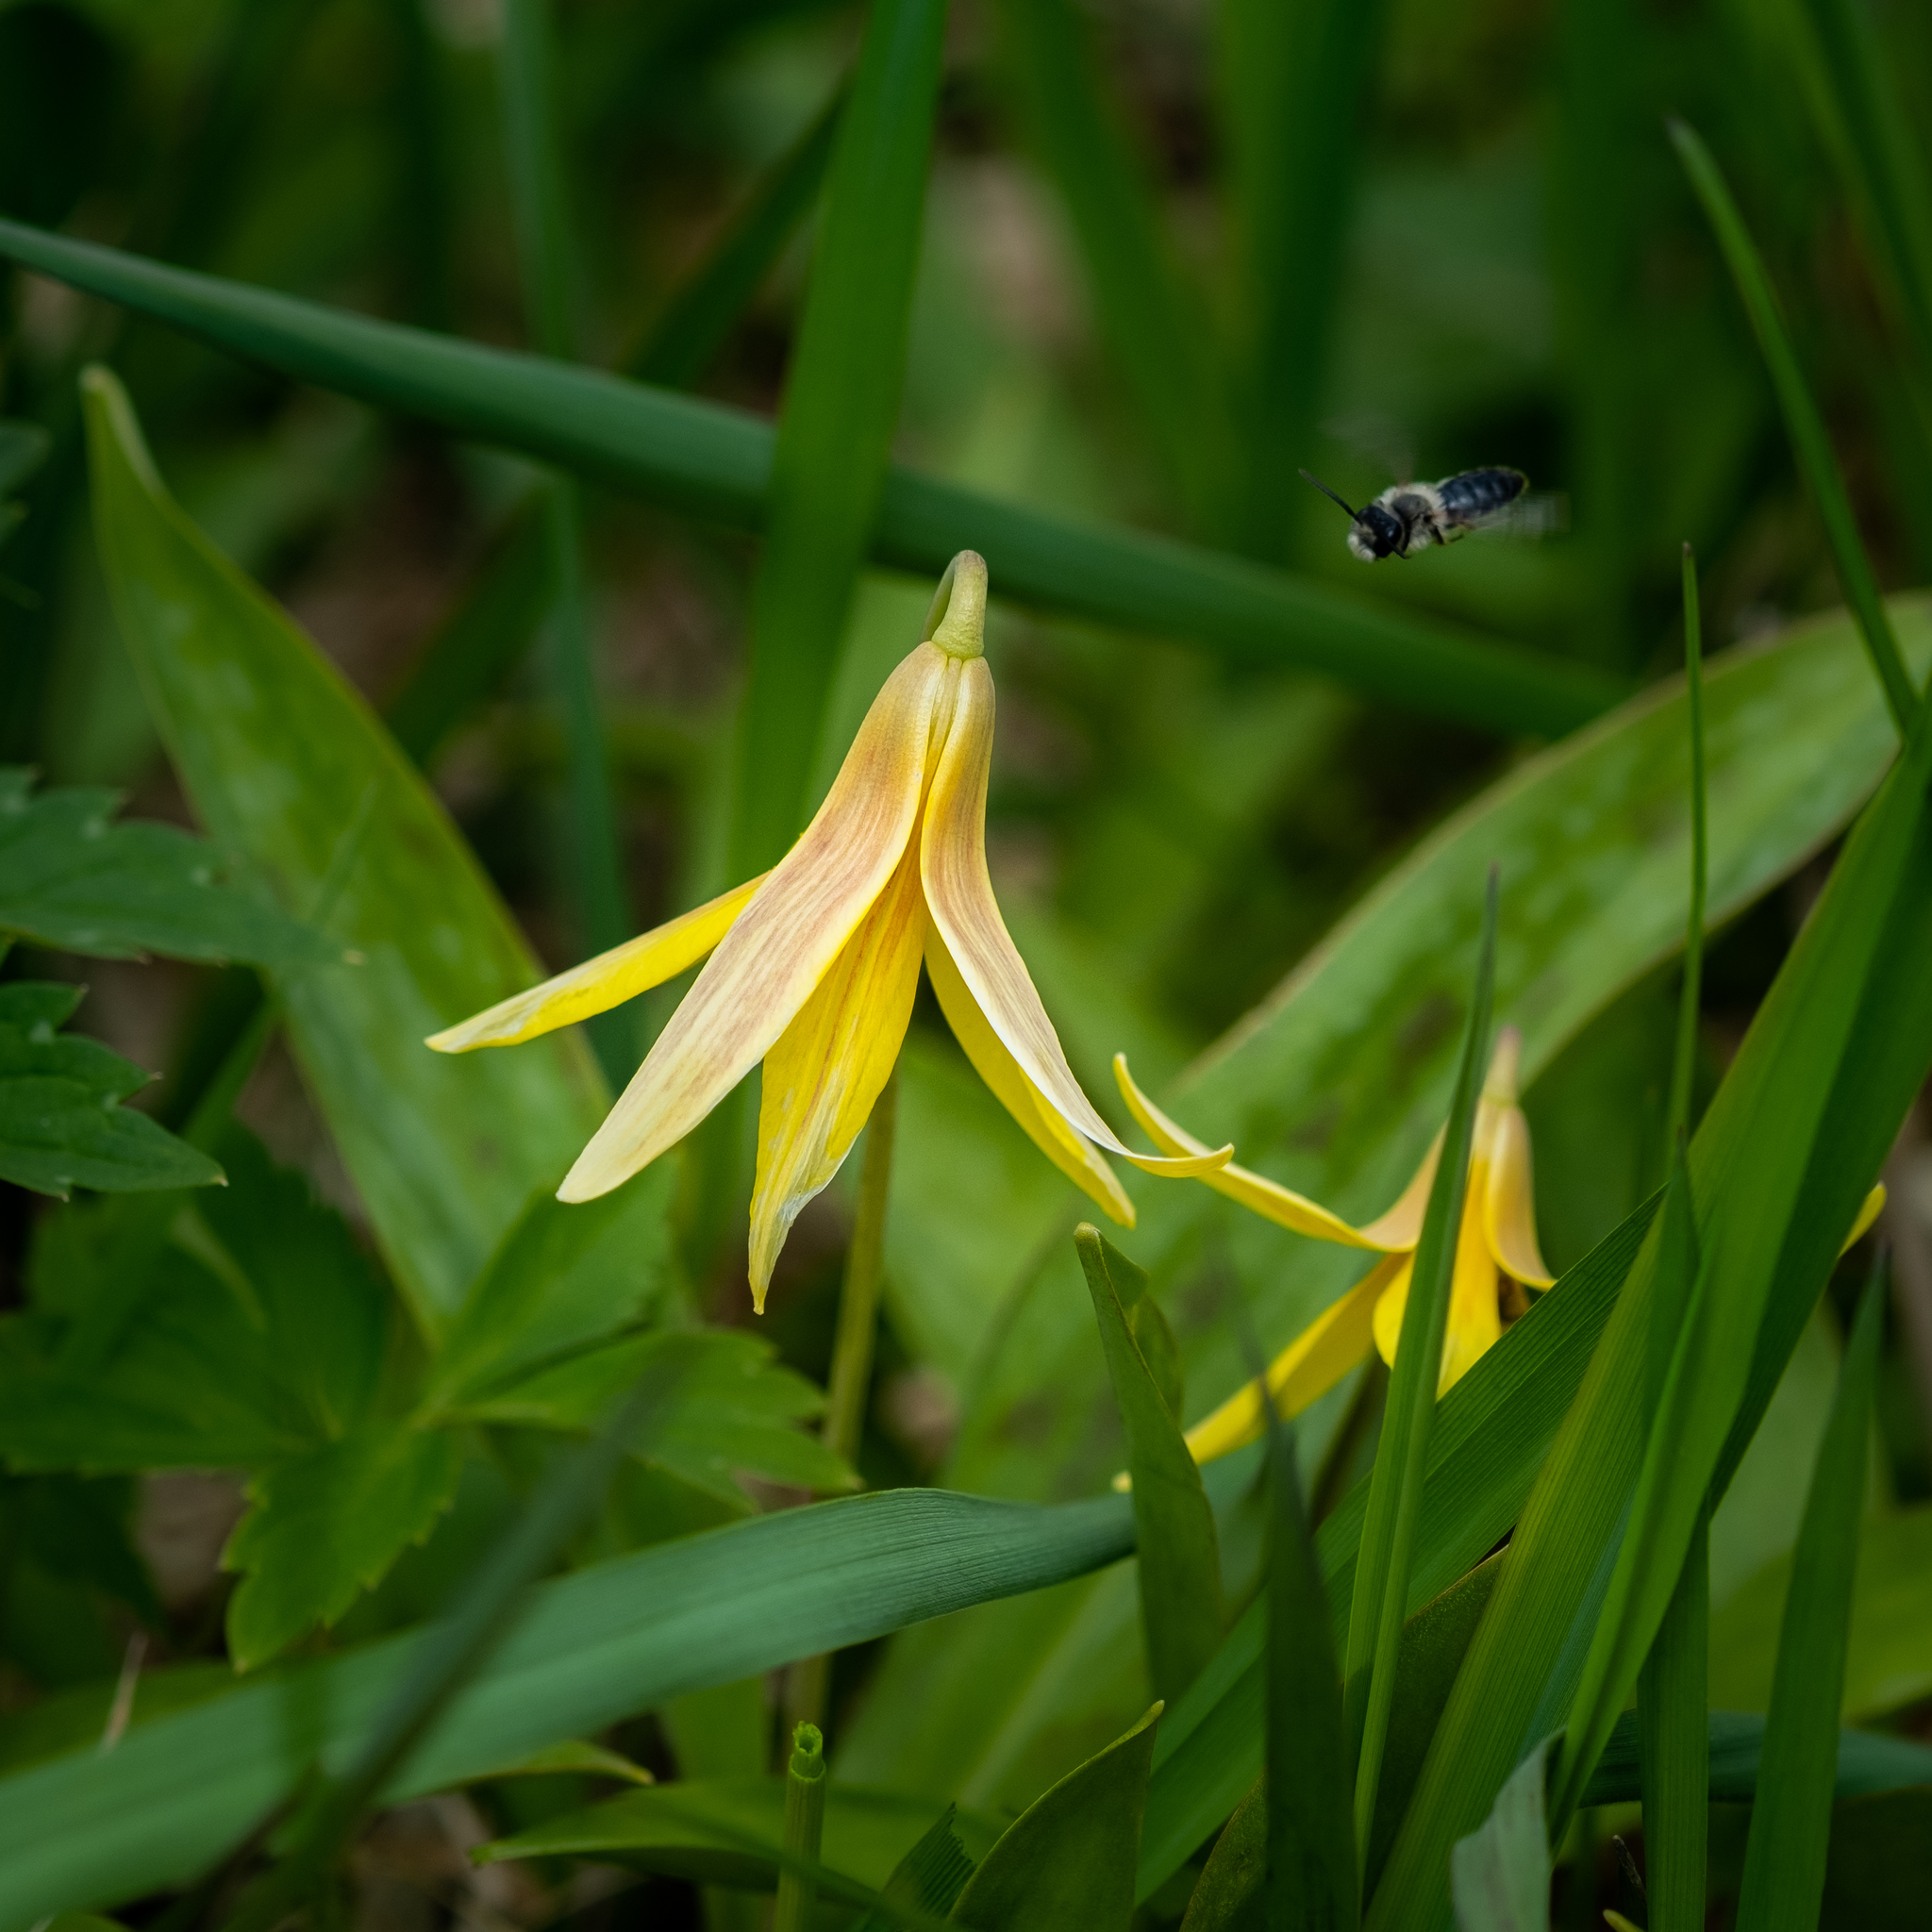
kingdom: Plantae
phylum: Tracheophyta
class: Liliopsida
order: Liliales
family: Liliaceae
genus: Erythronium
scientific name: Erythronium americanum
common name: Yellow adder's-tongue
